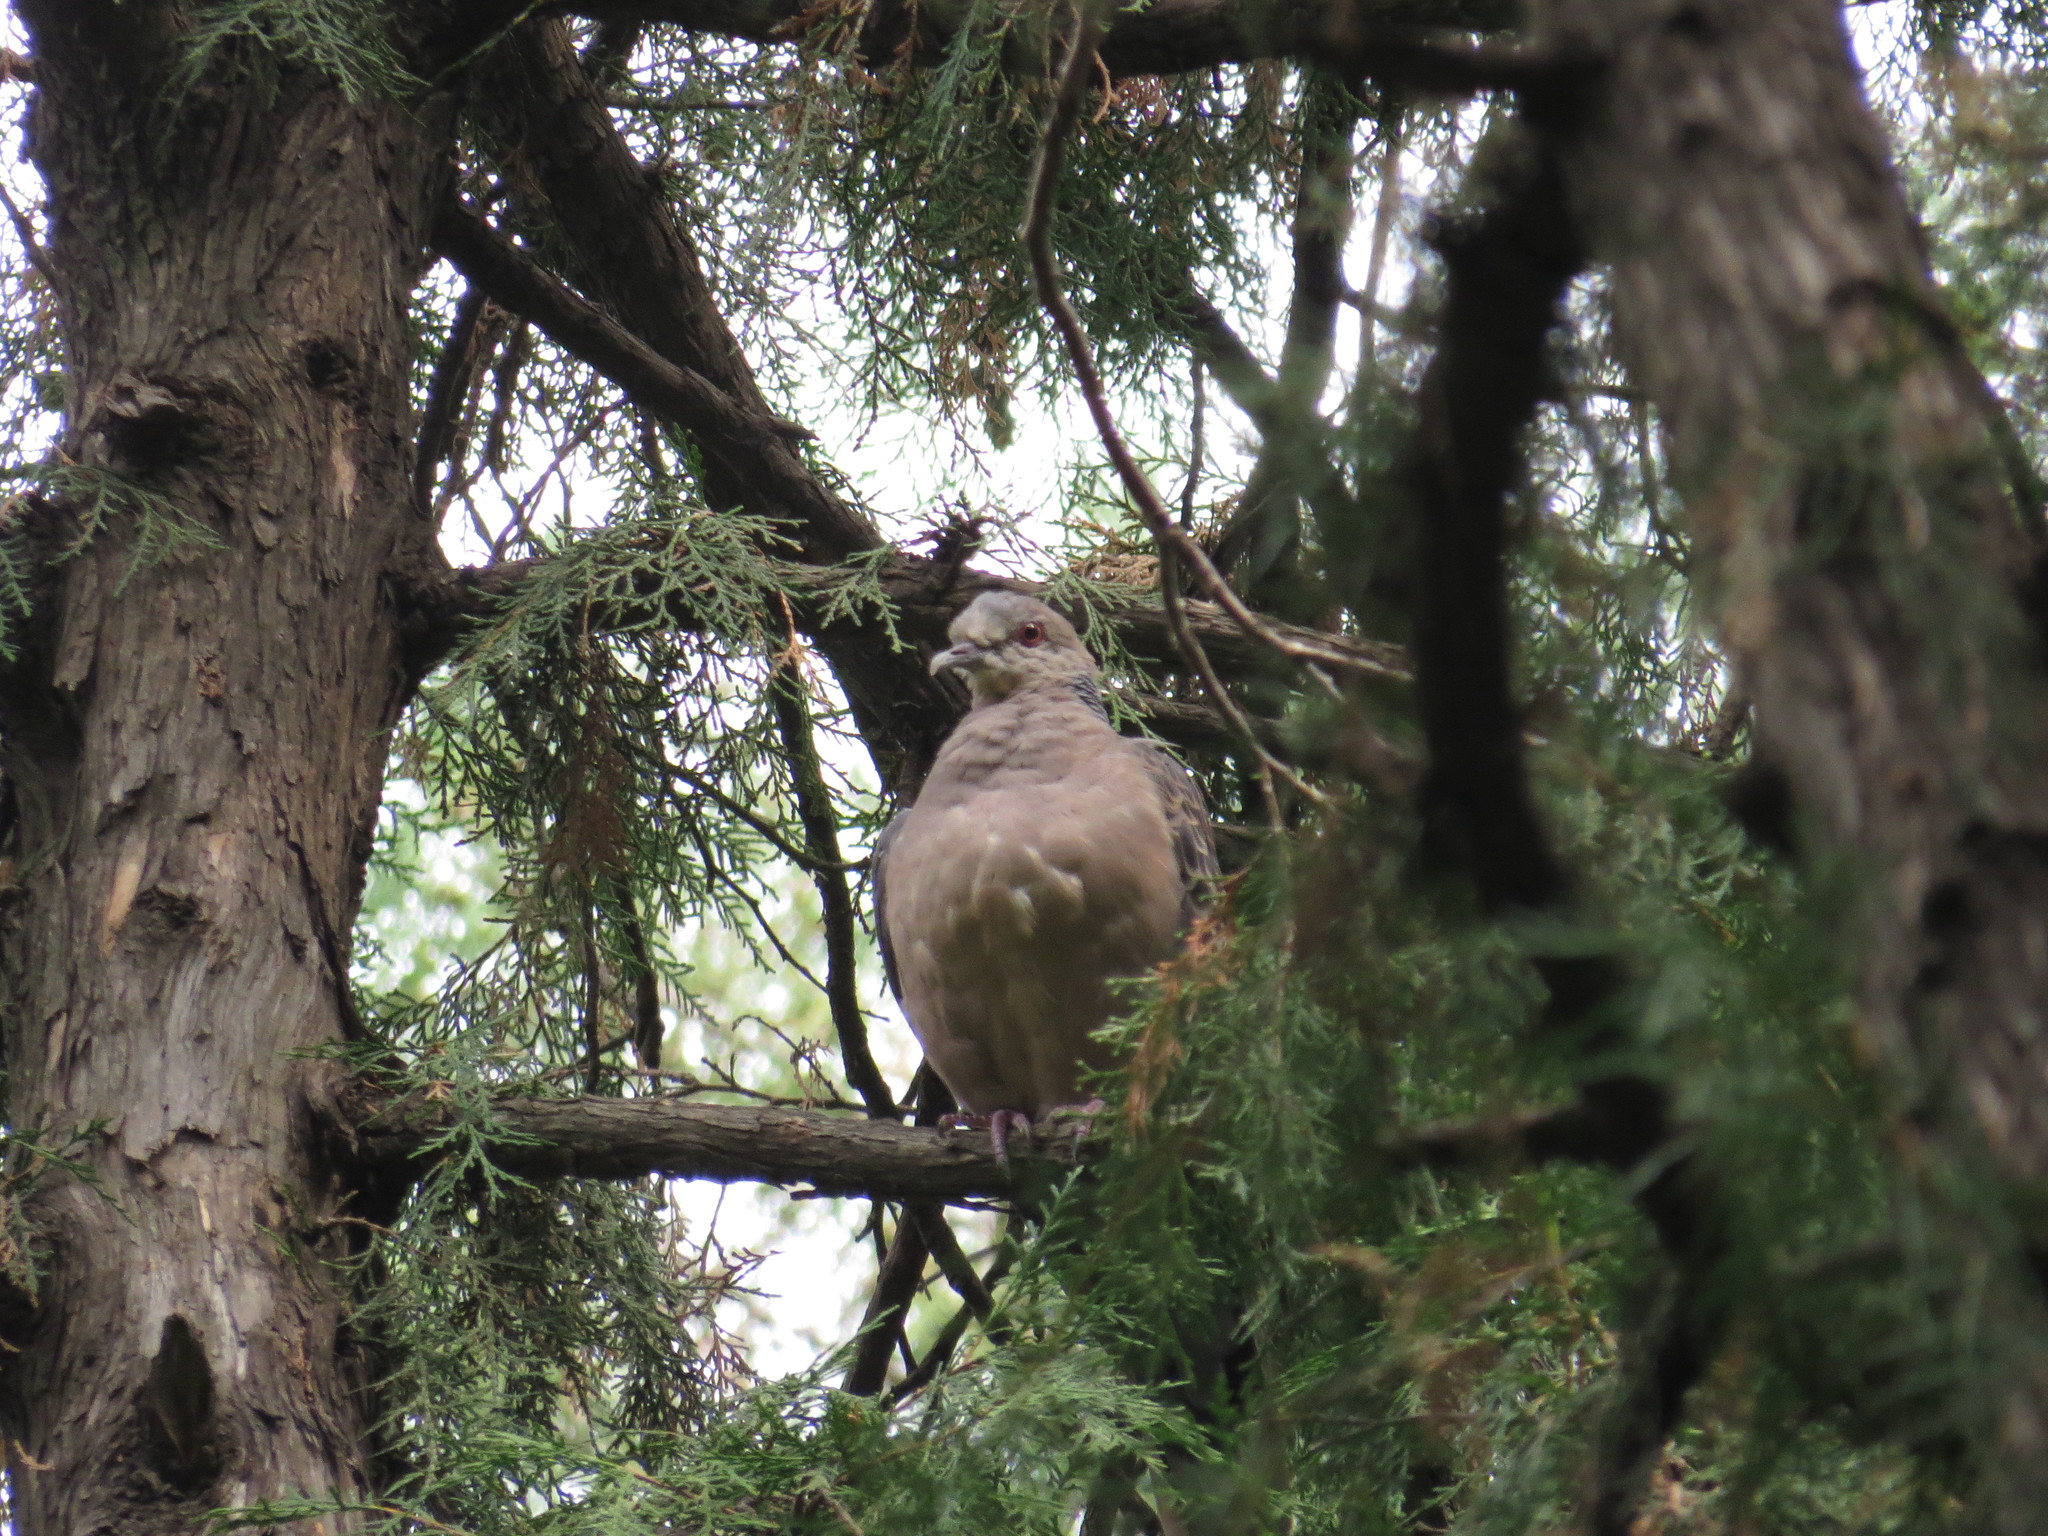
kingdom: Animalia
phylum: Chordata
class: Aves
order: Columbiformes
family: Columbidae
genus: Spilopelia
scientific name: Spilopelia chinensis
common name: Spotted dove
